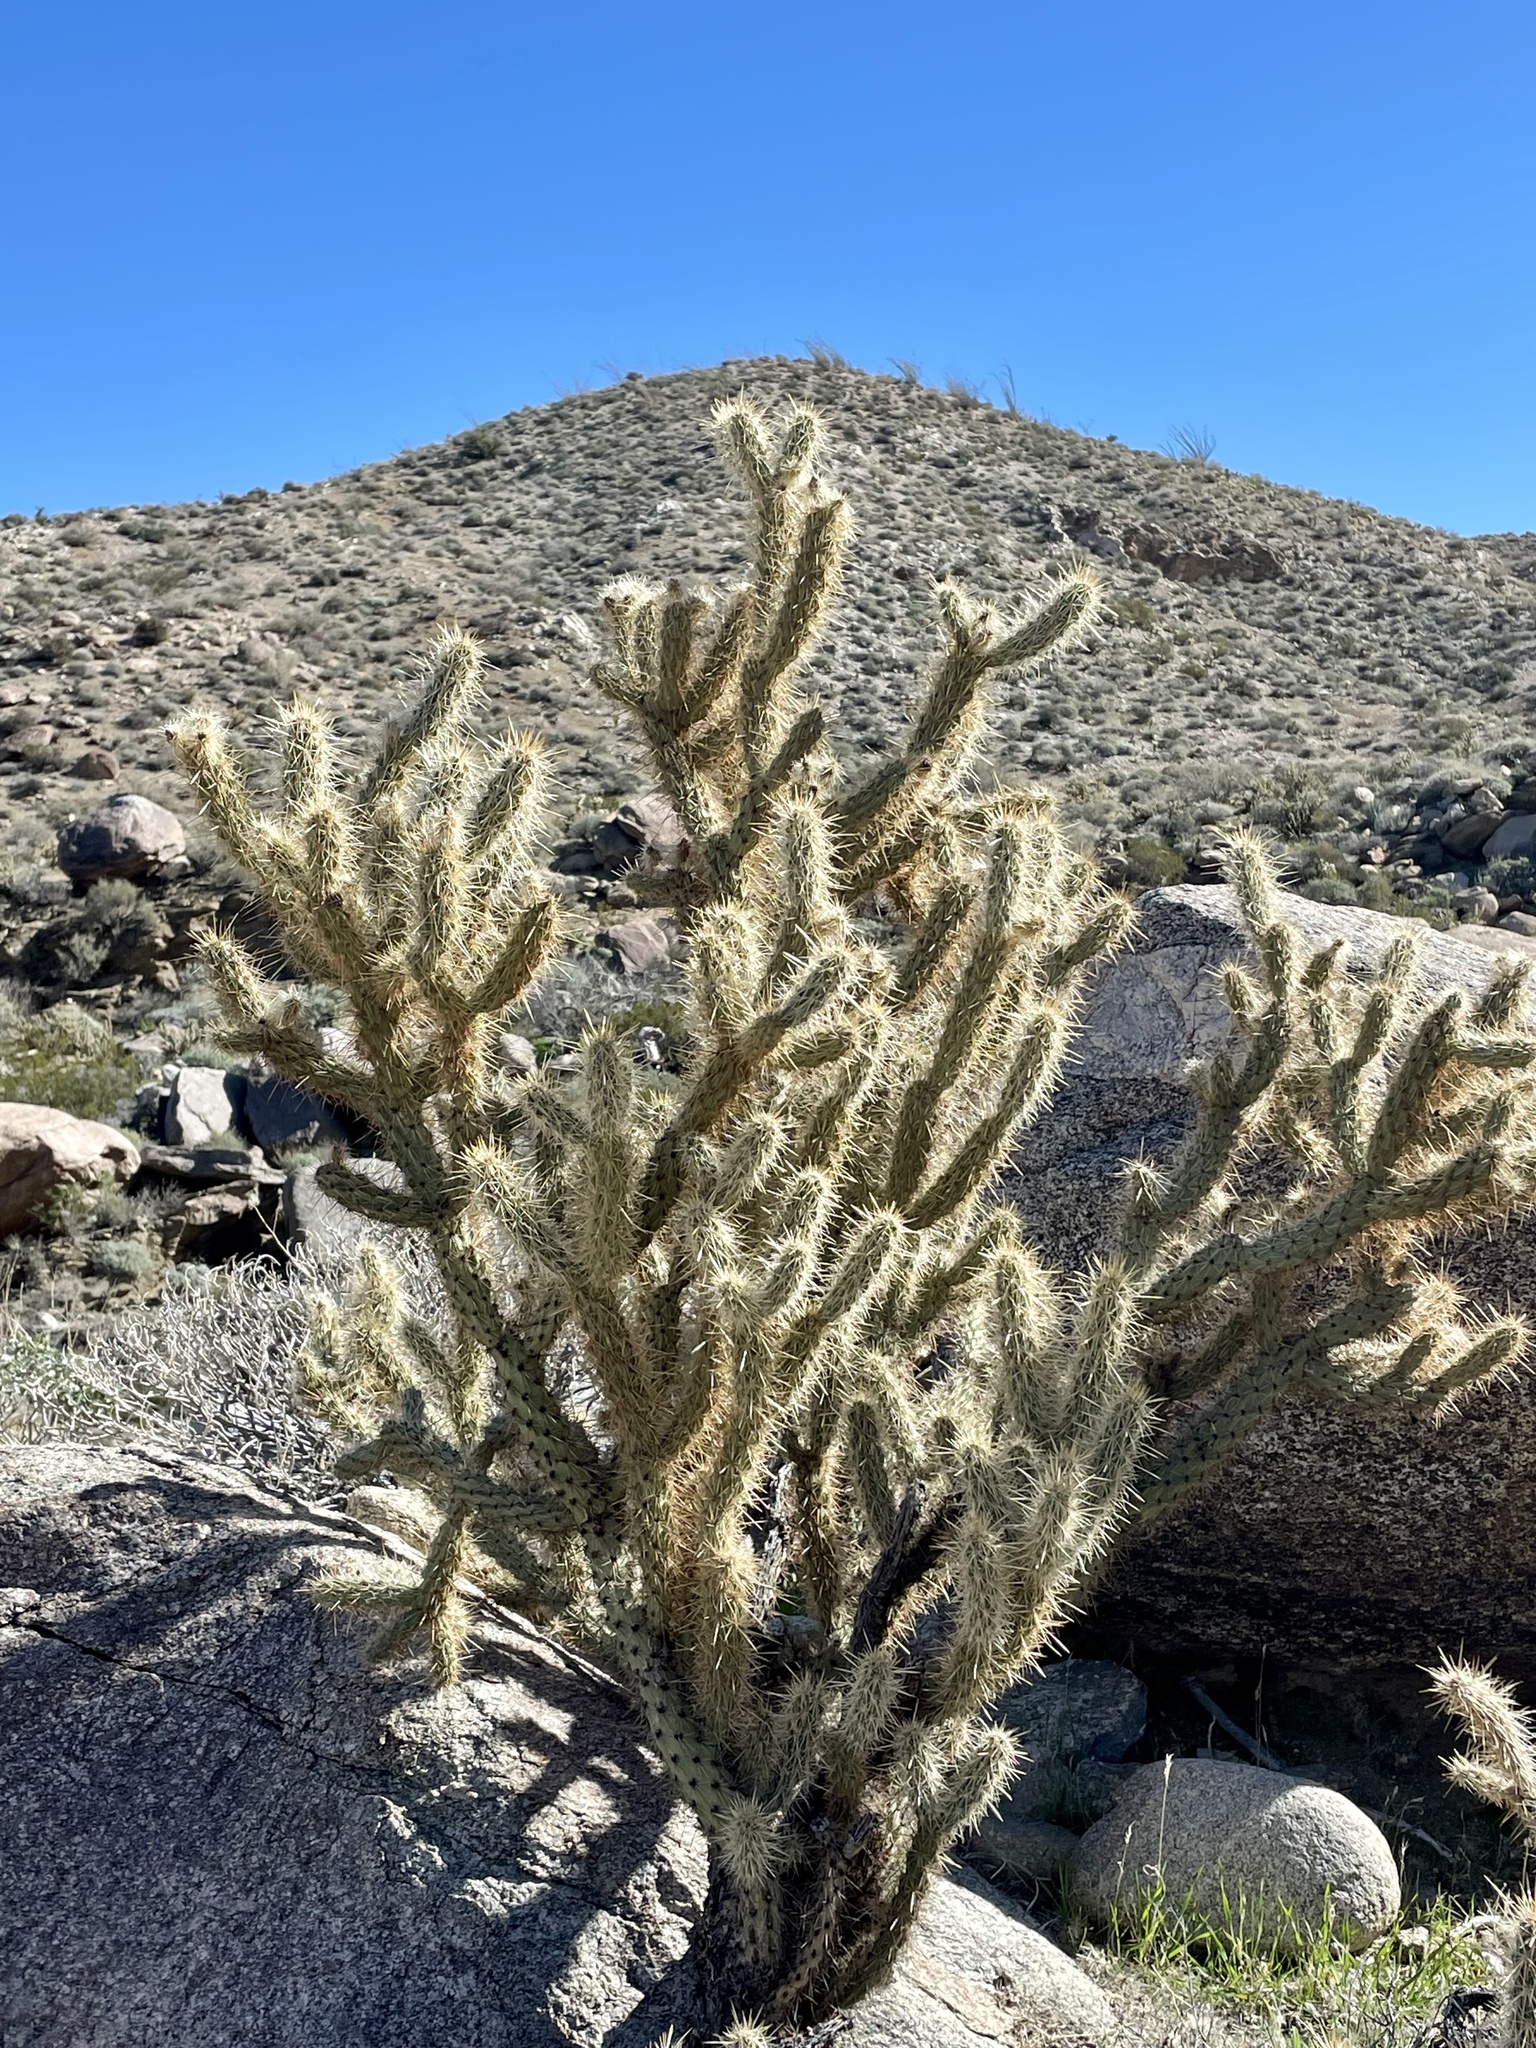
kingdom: Plantae
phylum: Tracheophyta
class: Magnoliopsida
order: Caryophyllales
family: Cactaceae
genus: Cylindropuntia
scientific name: Cylindropuntia ganderi
